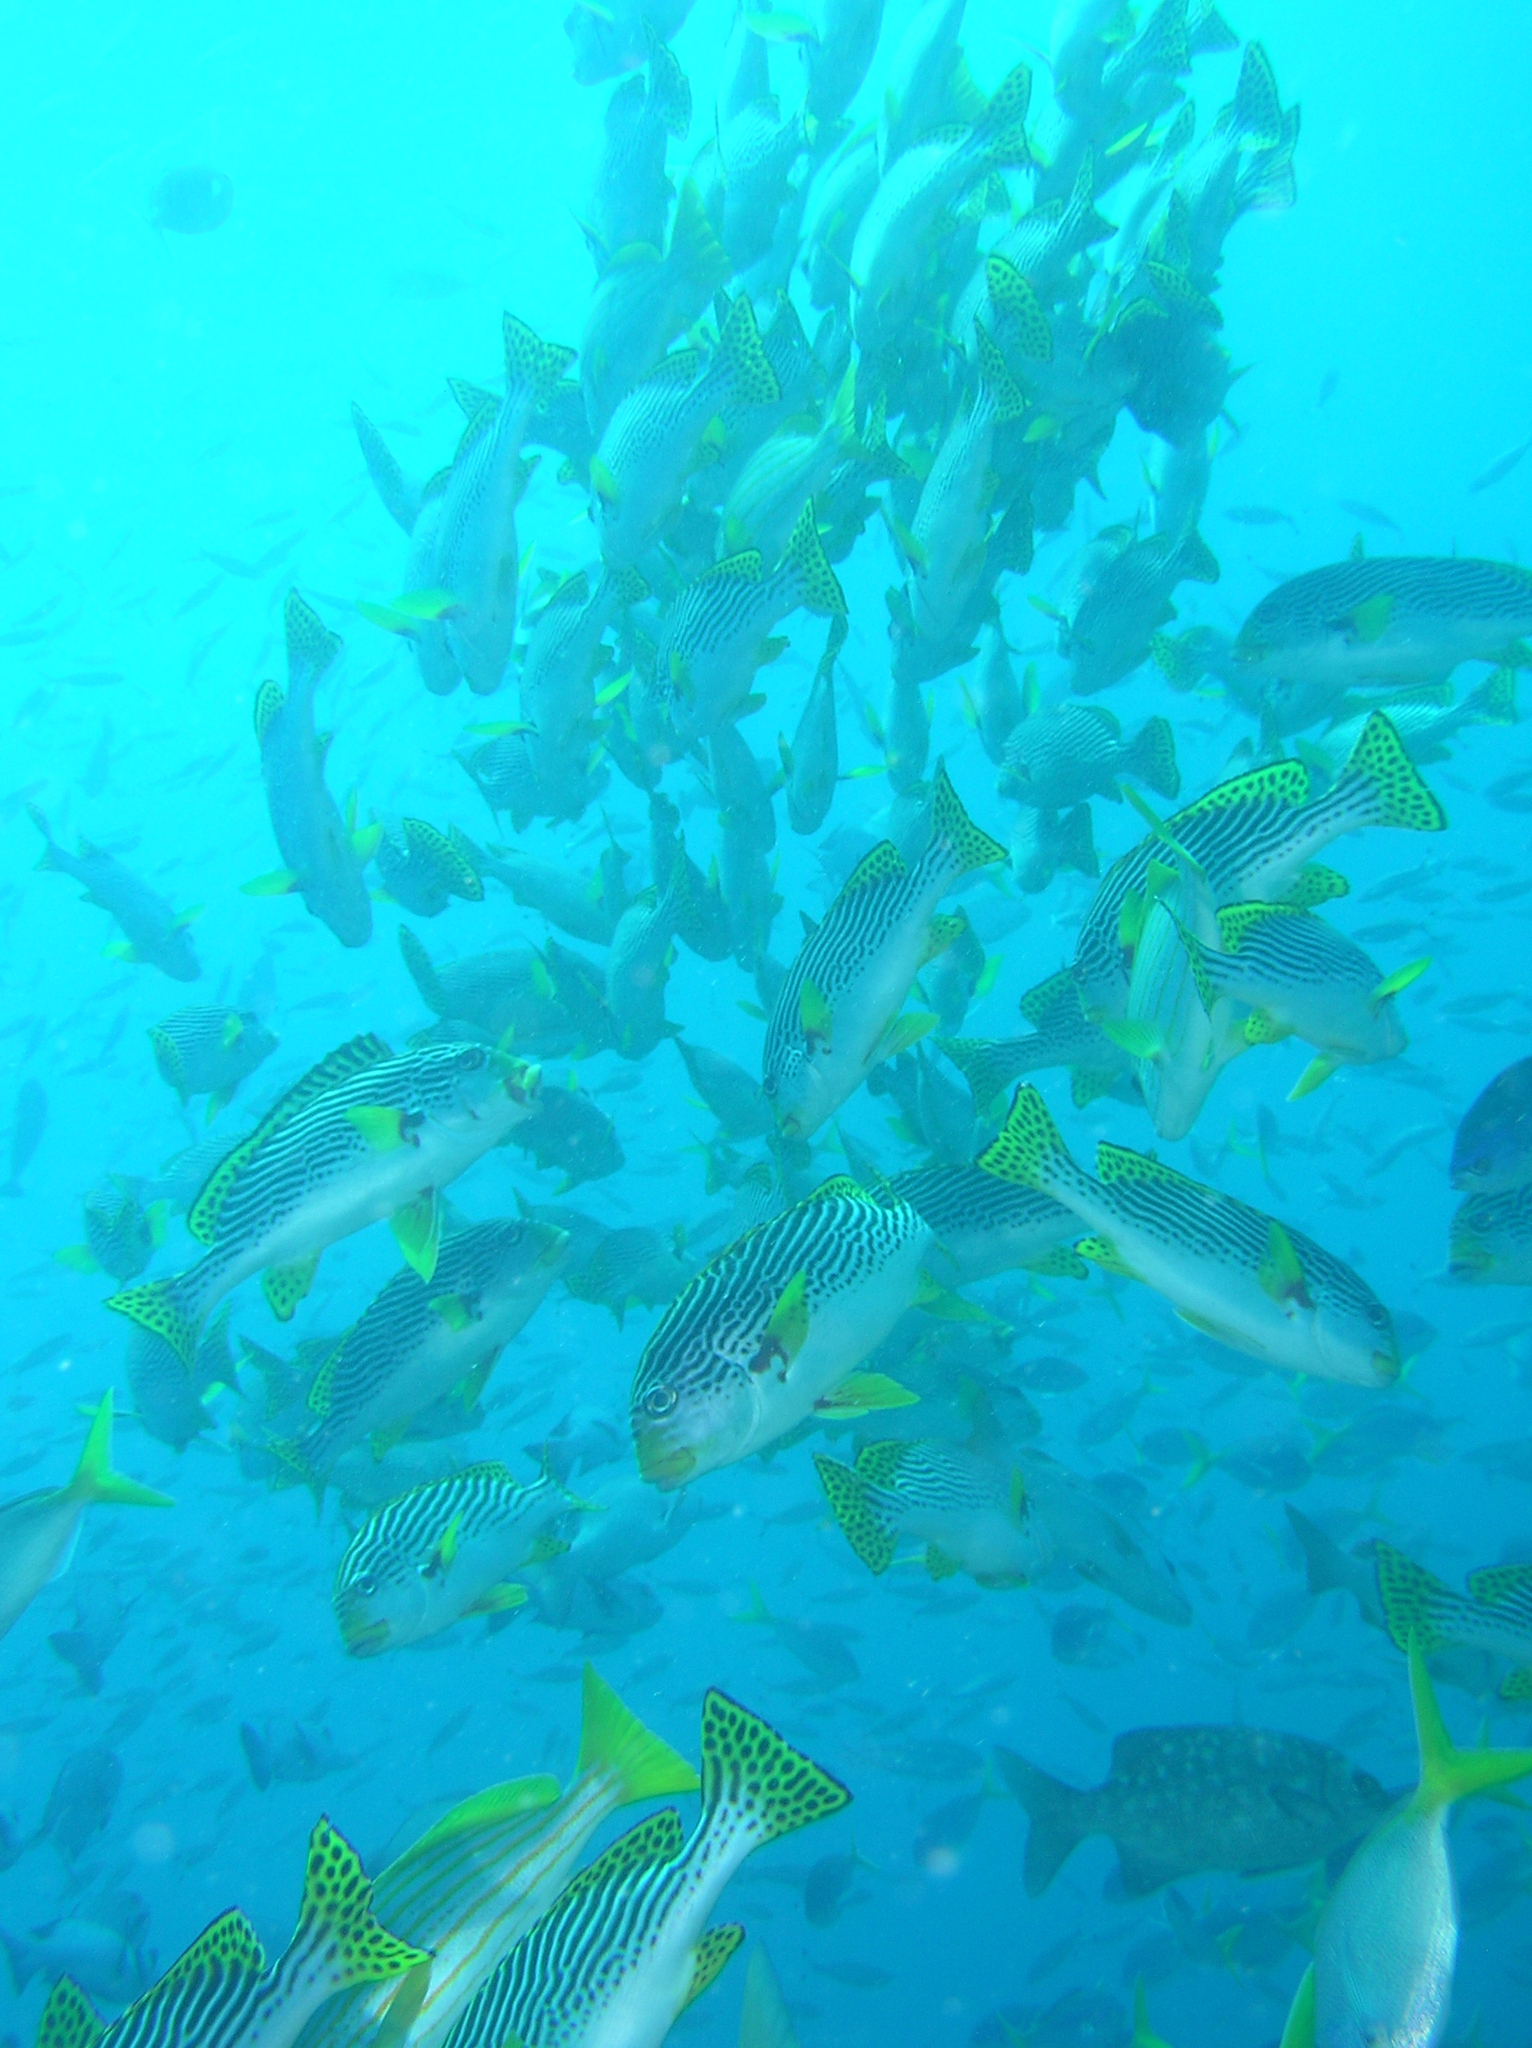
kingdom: Animalia
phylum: Chordata
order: Perciformes
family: Kyphosidae
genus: Kyphosus
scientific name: Kyphosus cinerascens
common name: Topsail drummer
